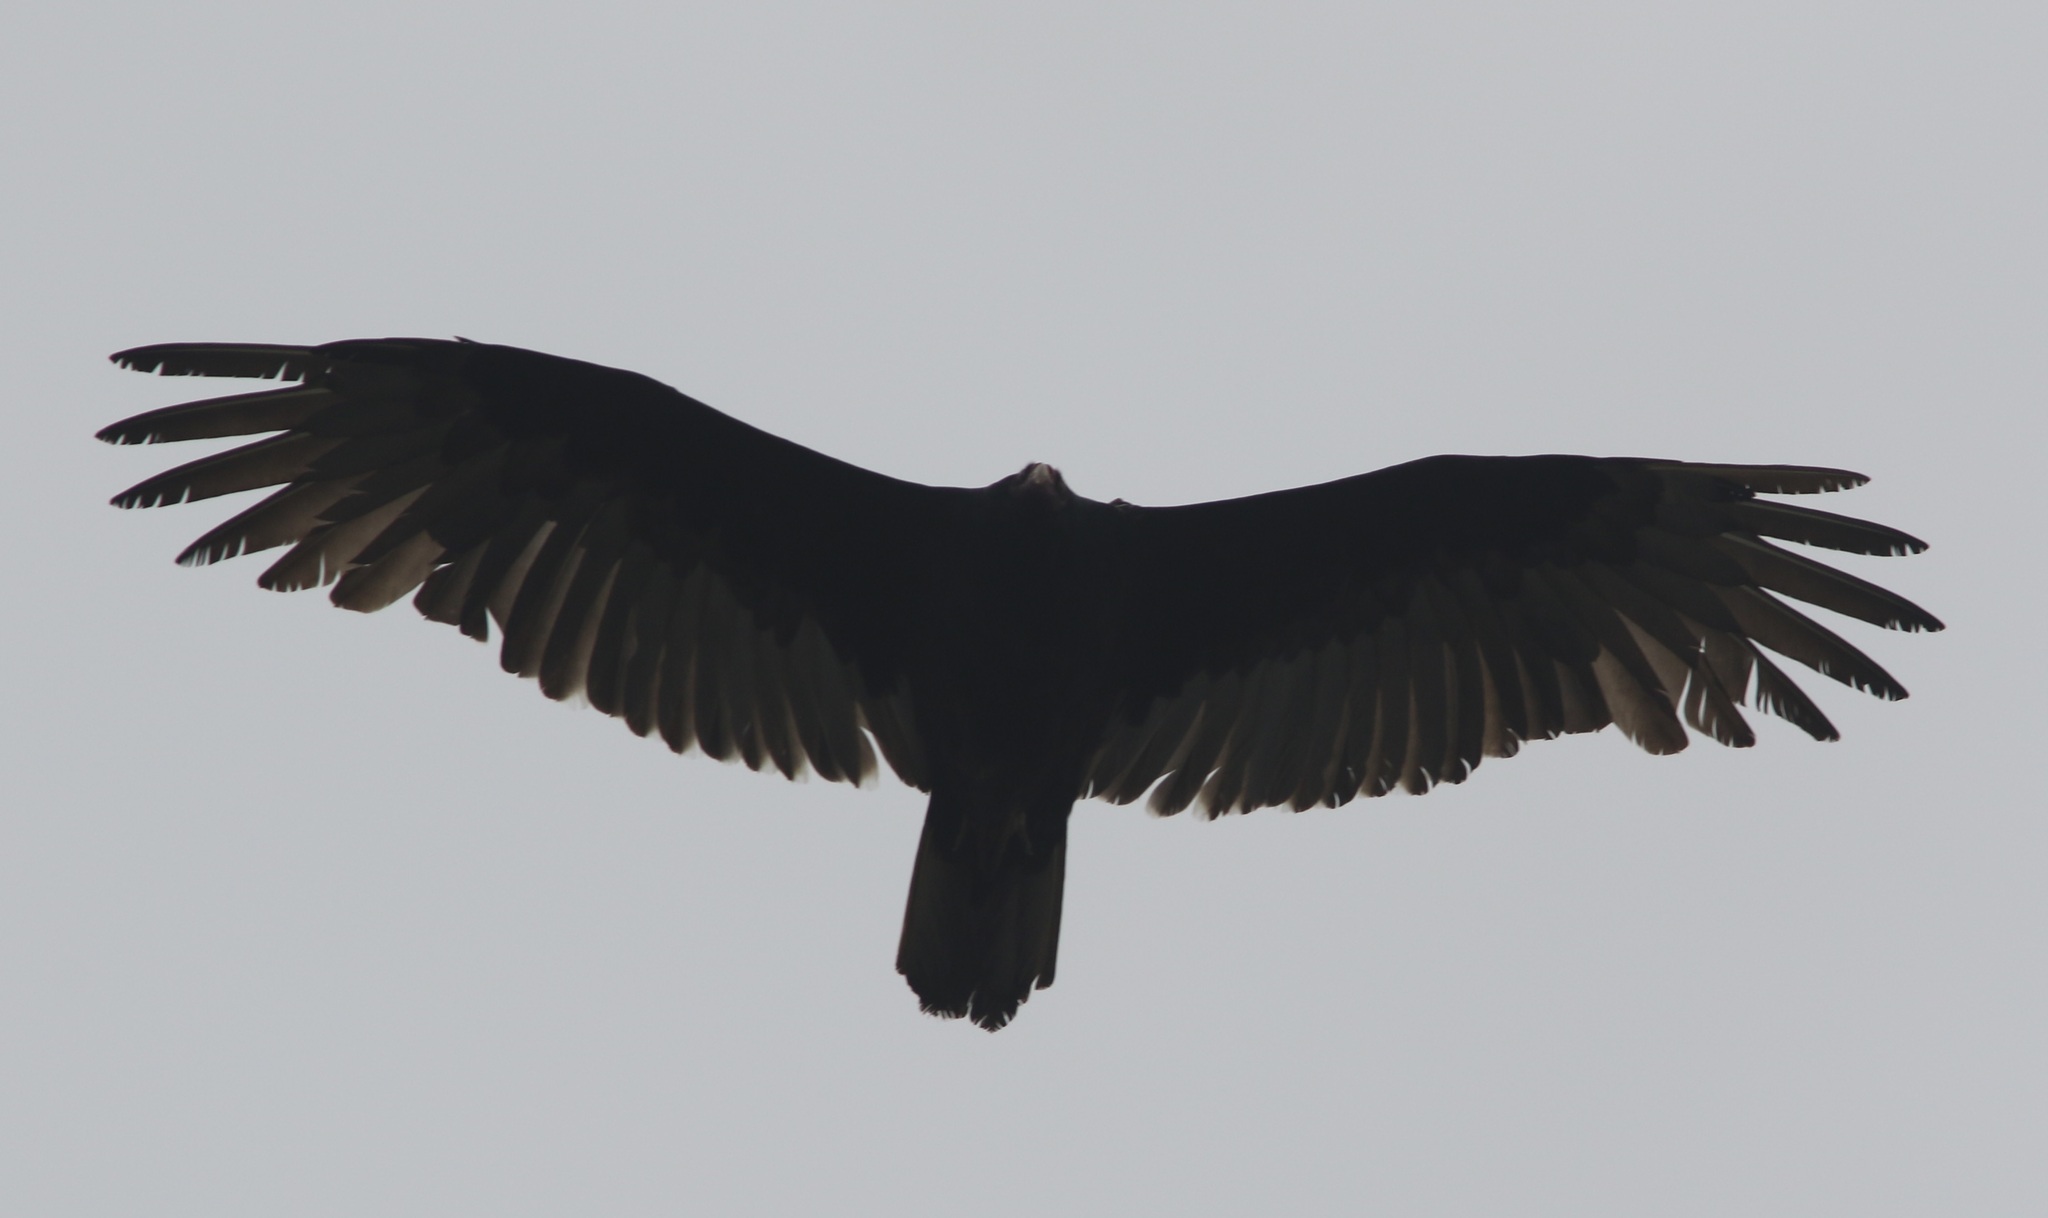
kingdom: Animalia
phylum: Chordata
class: Aves
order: Accipitriformes
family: Cathartidae
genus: Cathartes
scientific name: Cathartes aura
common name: Turkey vulture
